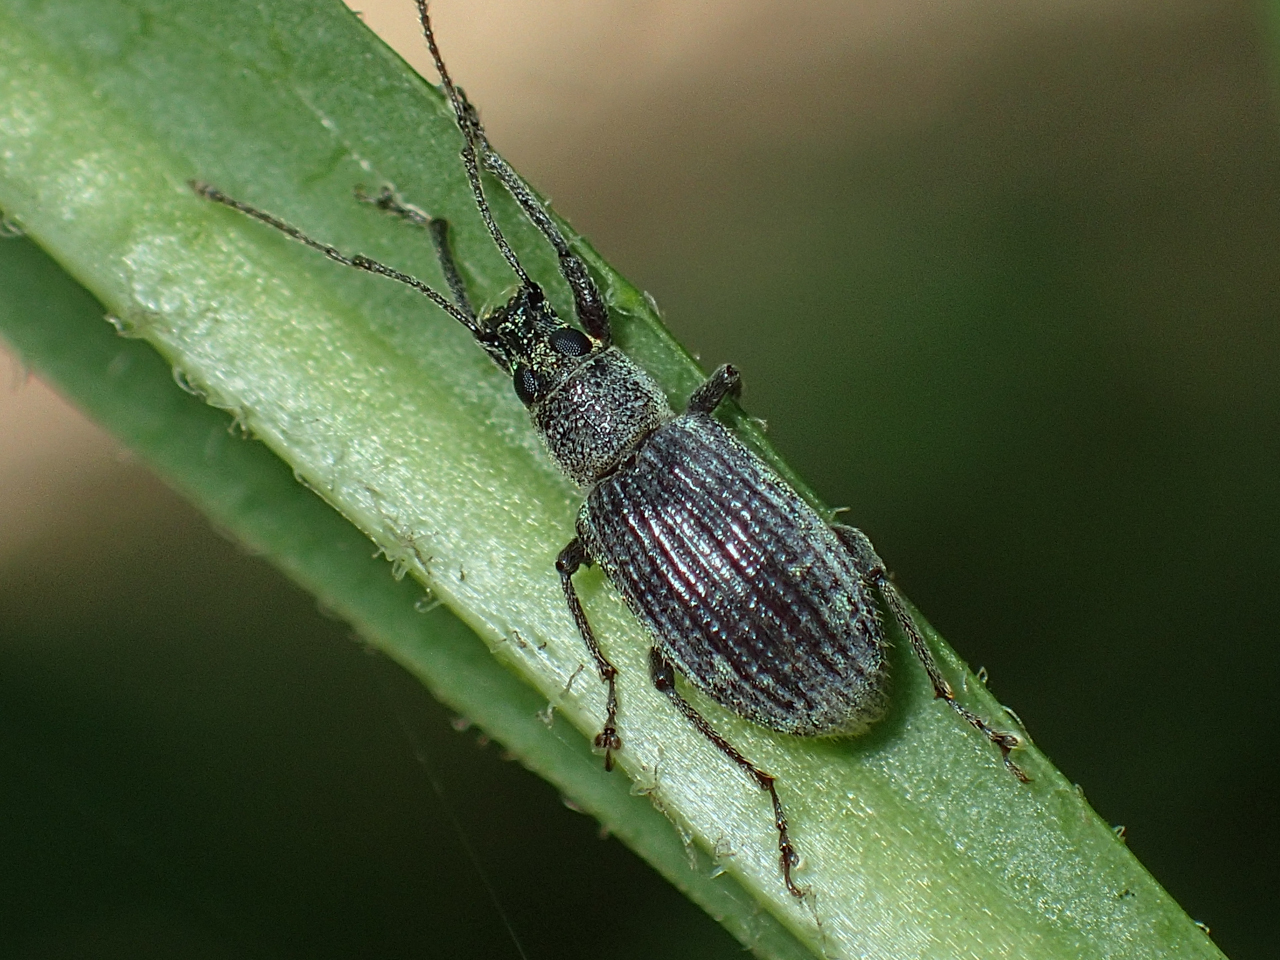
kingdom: Animalia
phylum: Arthropoda
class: Insecta
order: Coleoptera
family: Curculionidae
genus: Cyrtepistomus
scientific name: Cyrtepistomus castaneus
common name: Weevil
